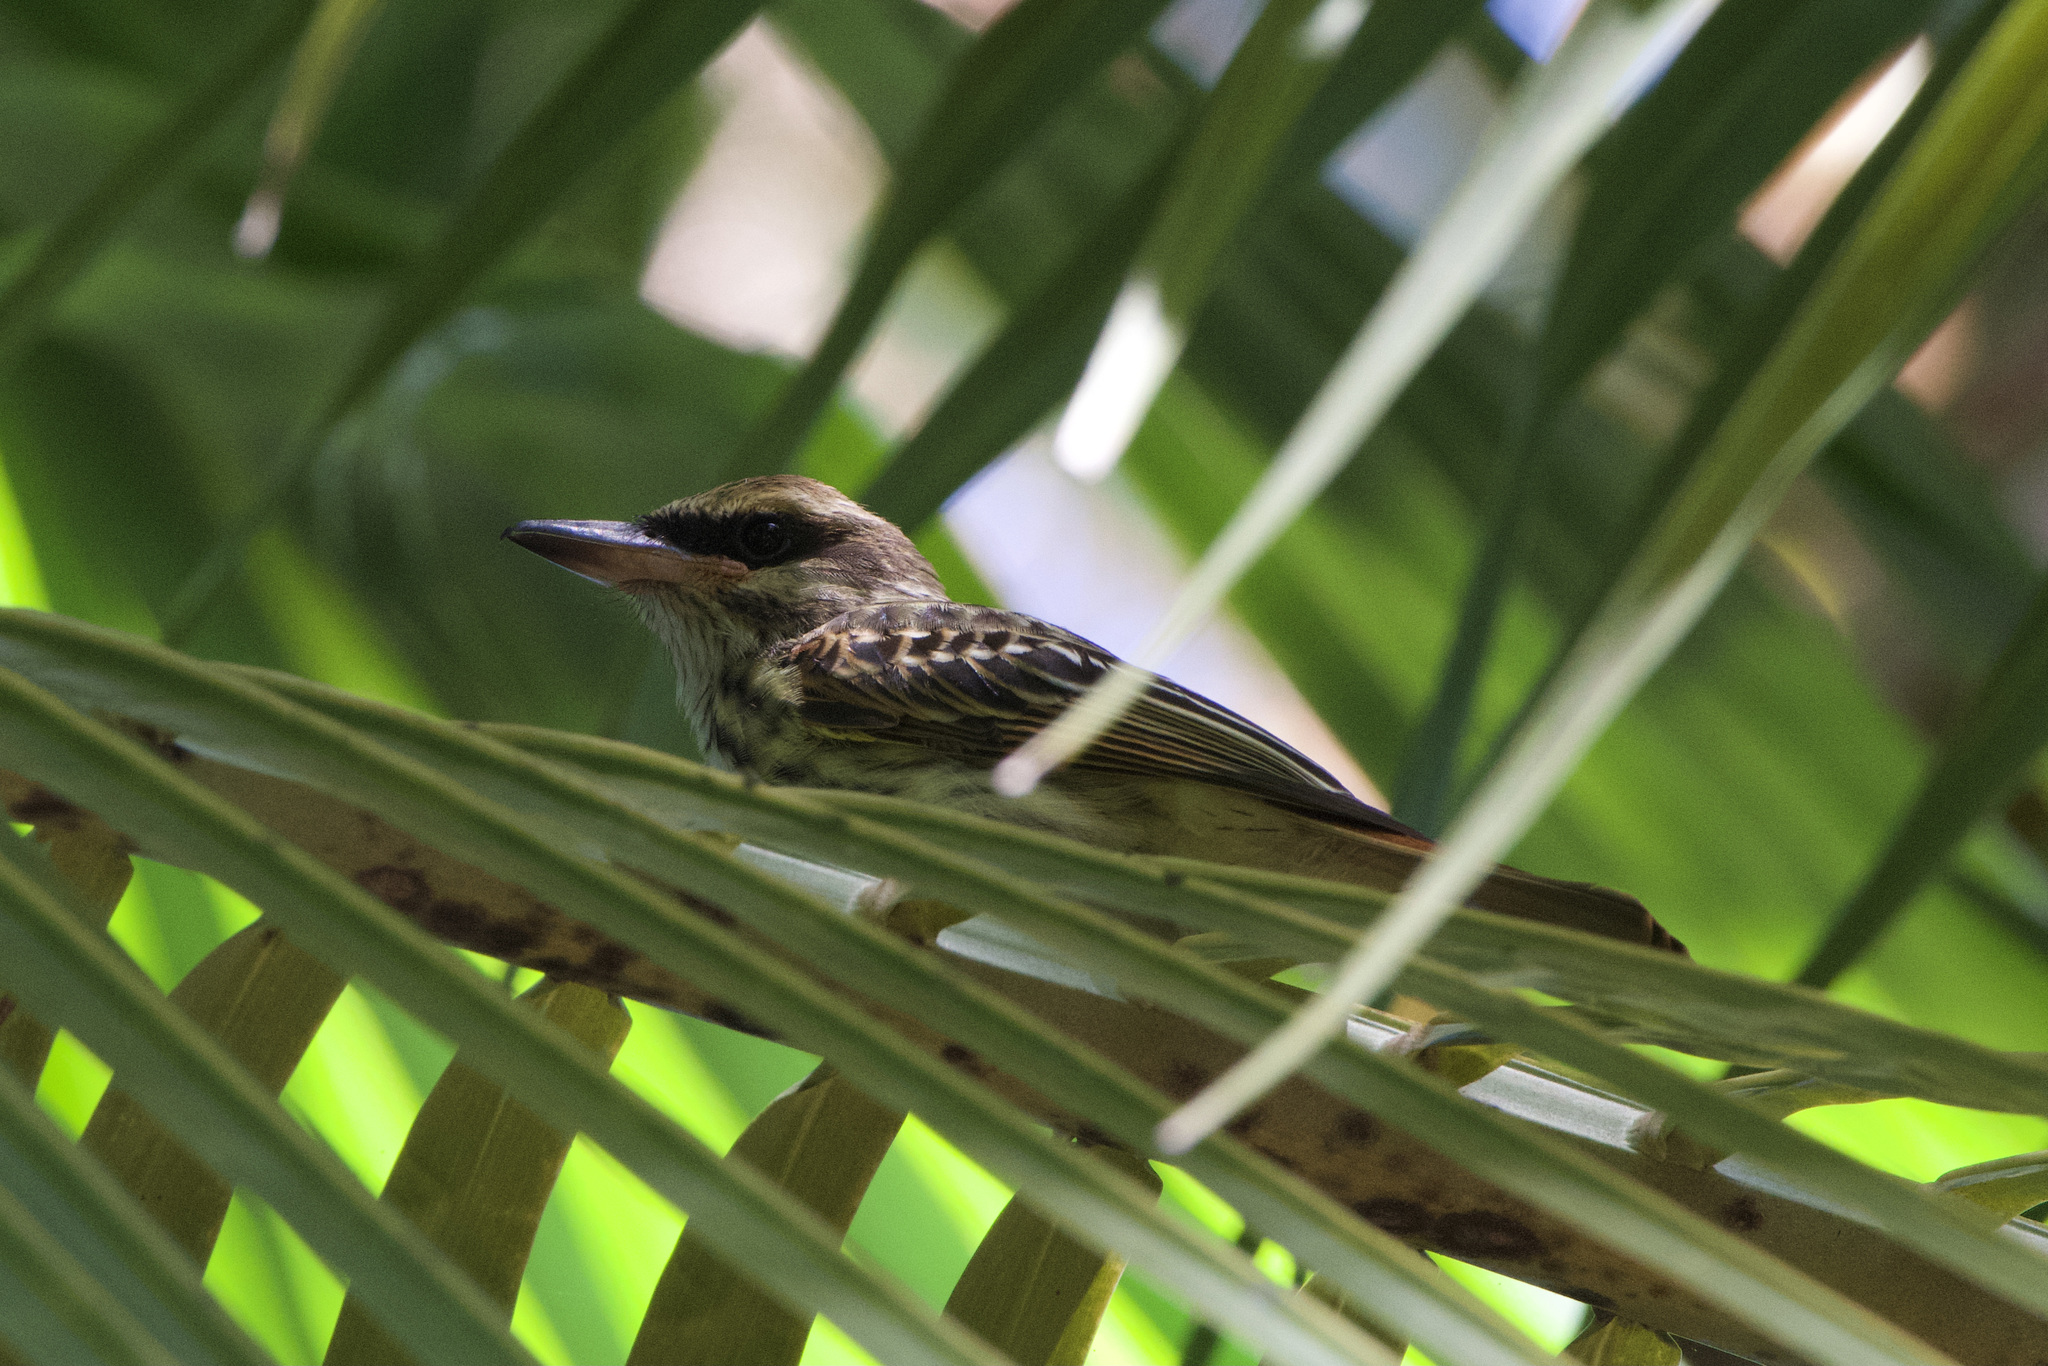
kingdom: Animalia
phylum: Chordata
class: Aves
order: Passeriformes
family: Tyrannidae
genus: Myiodynastes
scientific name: Myiodynastes maculatus
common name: Streaked flycatcher
